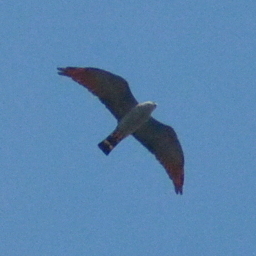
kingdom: Animalia
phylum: Chordata
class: Aves
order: Accipitriformes
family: Accipitridae
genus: Ictinia
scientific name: Ictinia plumbea
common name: Plumbeous kite
